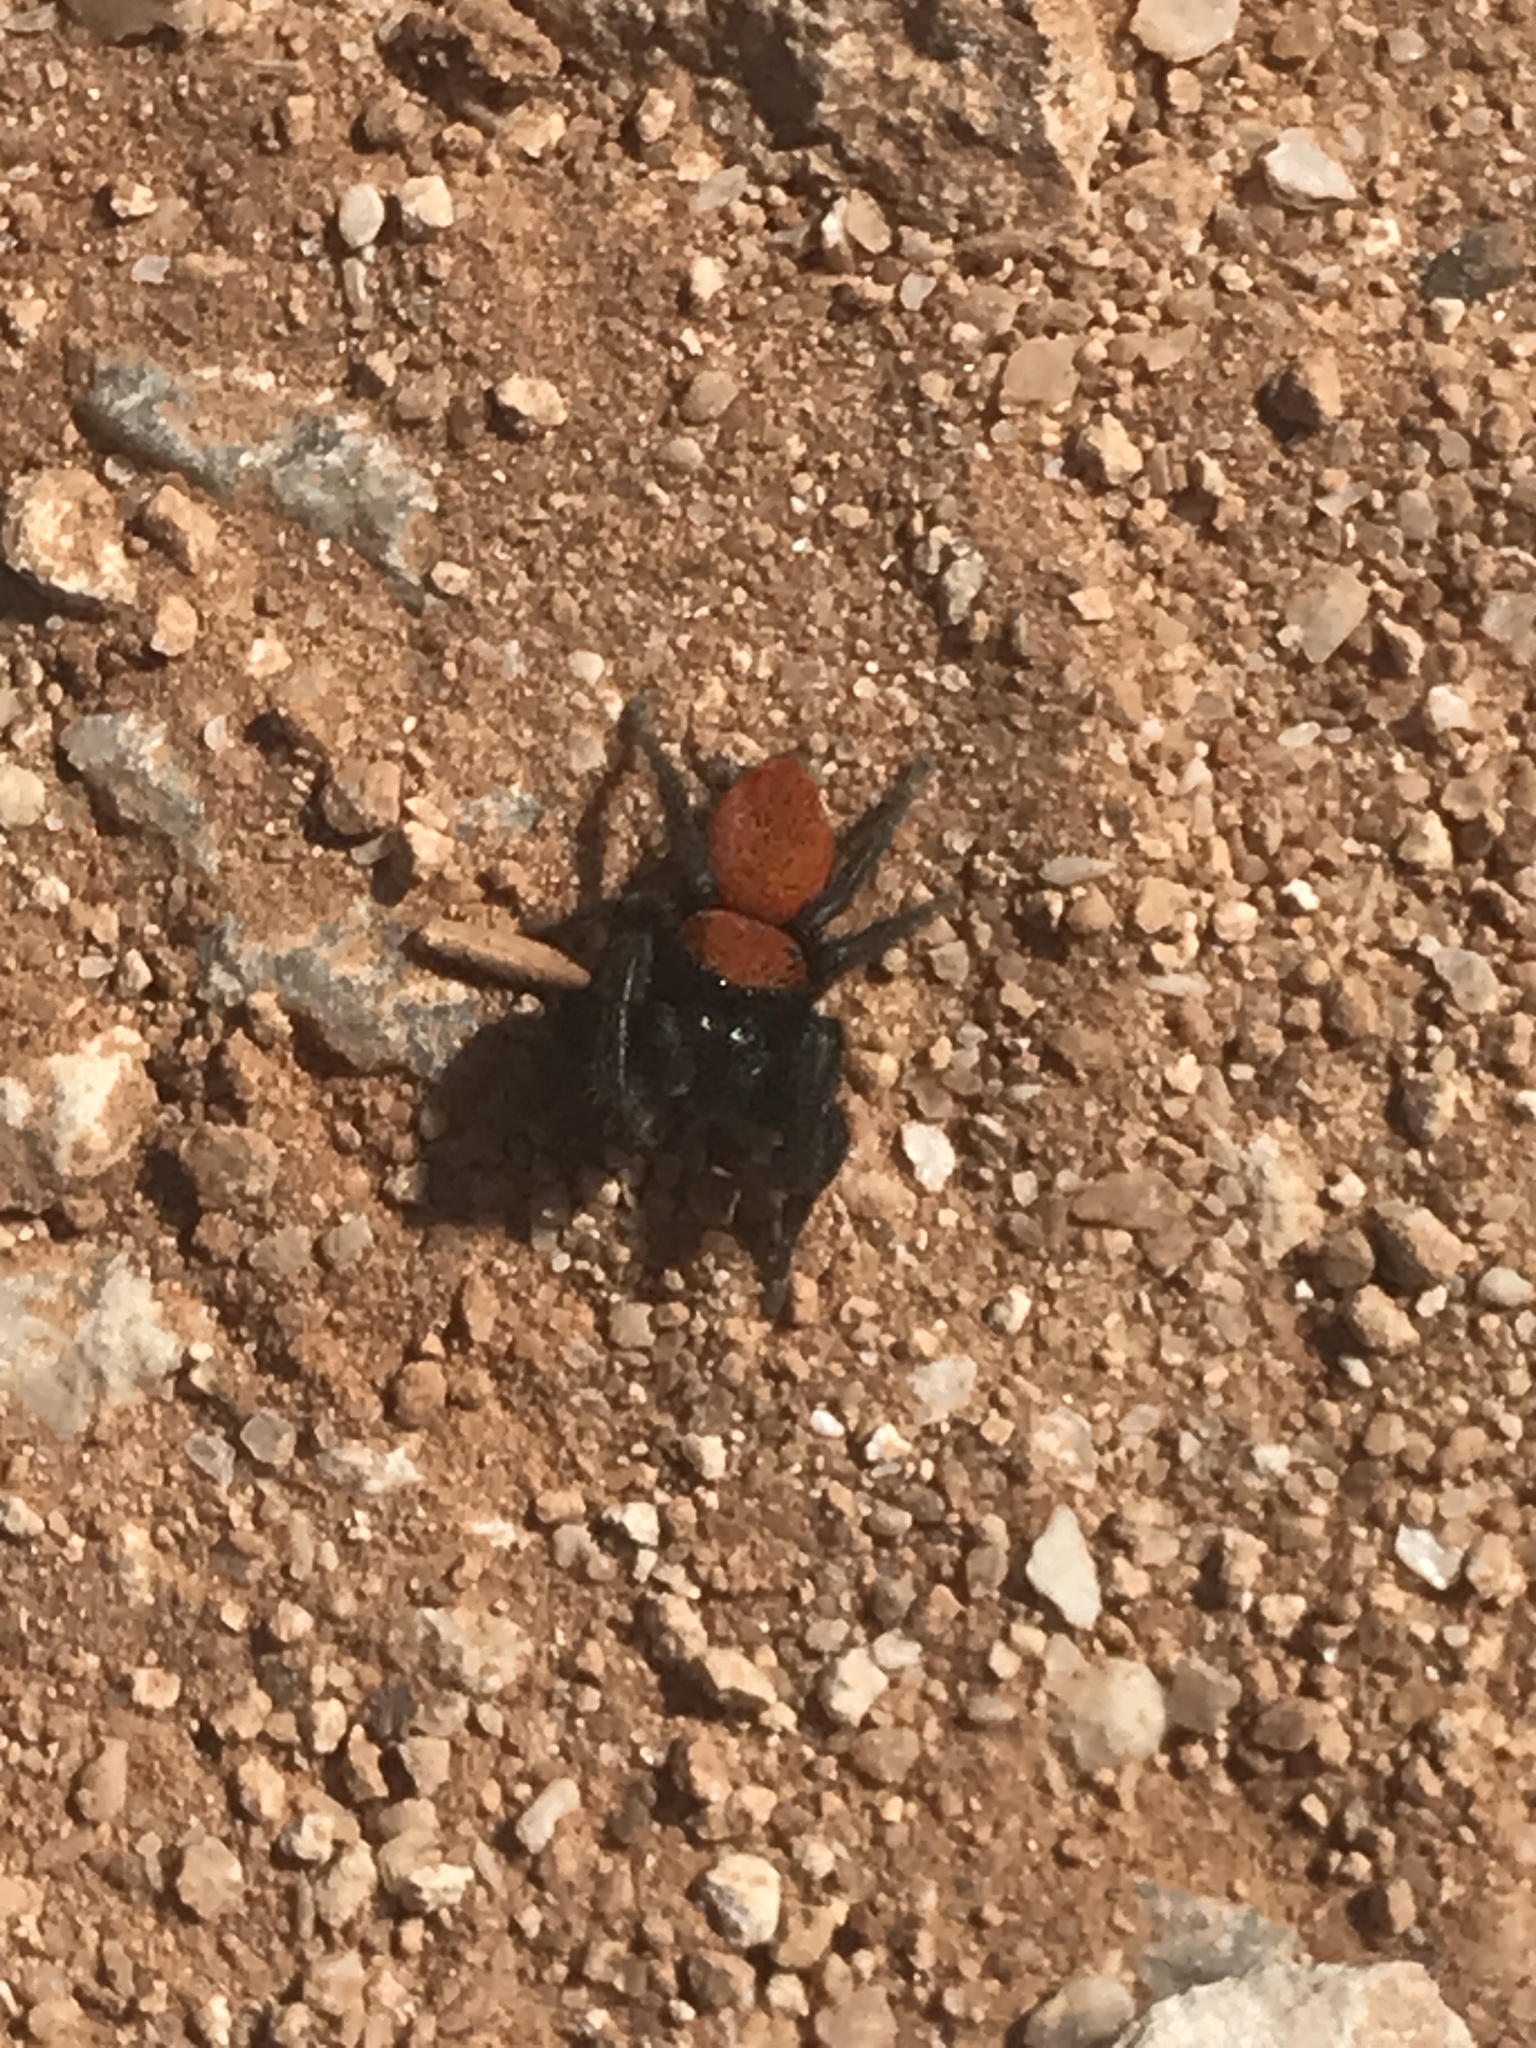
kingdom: Animalia
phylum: Arthropoda
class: Arachnida
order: Araneae
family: Salticidae
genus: Phidippus
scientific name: Phidippus apacheanus
